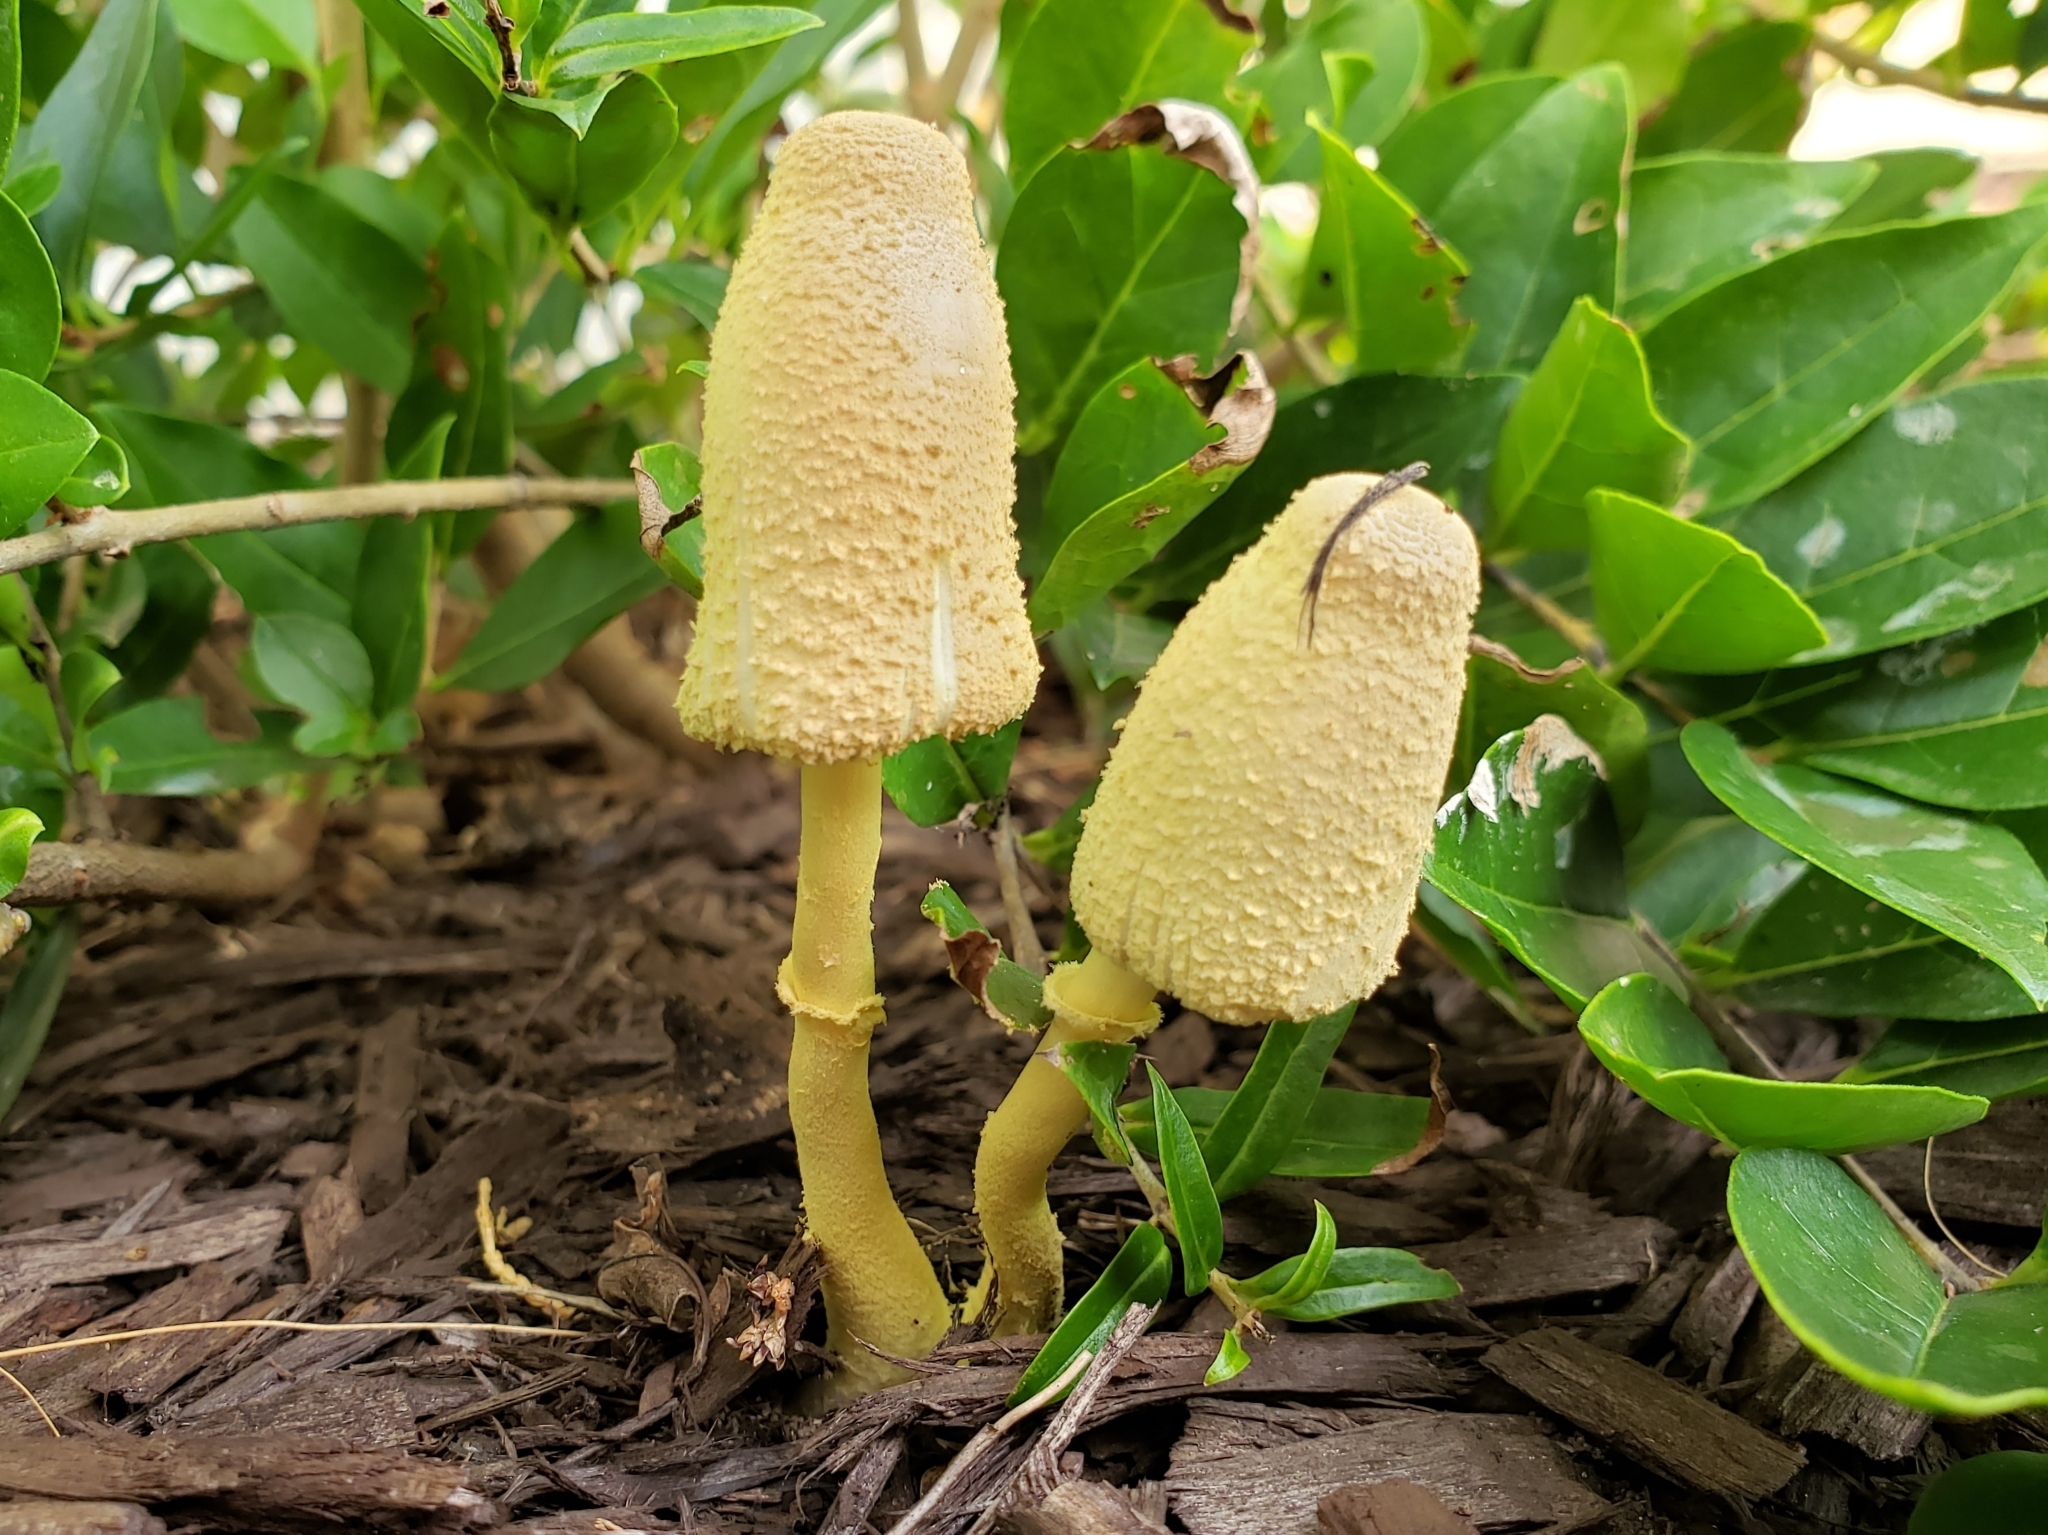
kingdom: Fungi
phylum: Basidiomycota
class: Agaricomycetes
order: Agaricales
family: Agaricaceae
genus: Leucocoprinus
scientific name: Leucocoprinus birnbaumii
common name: Plantpot dapperling
